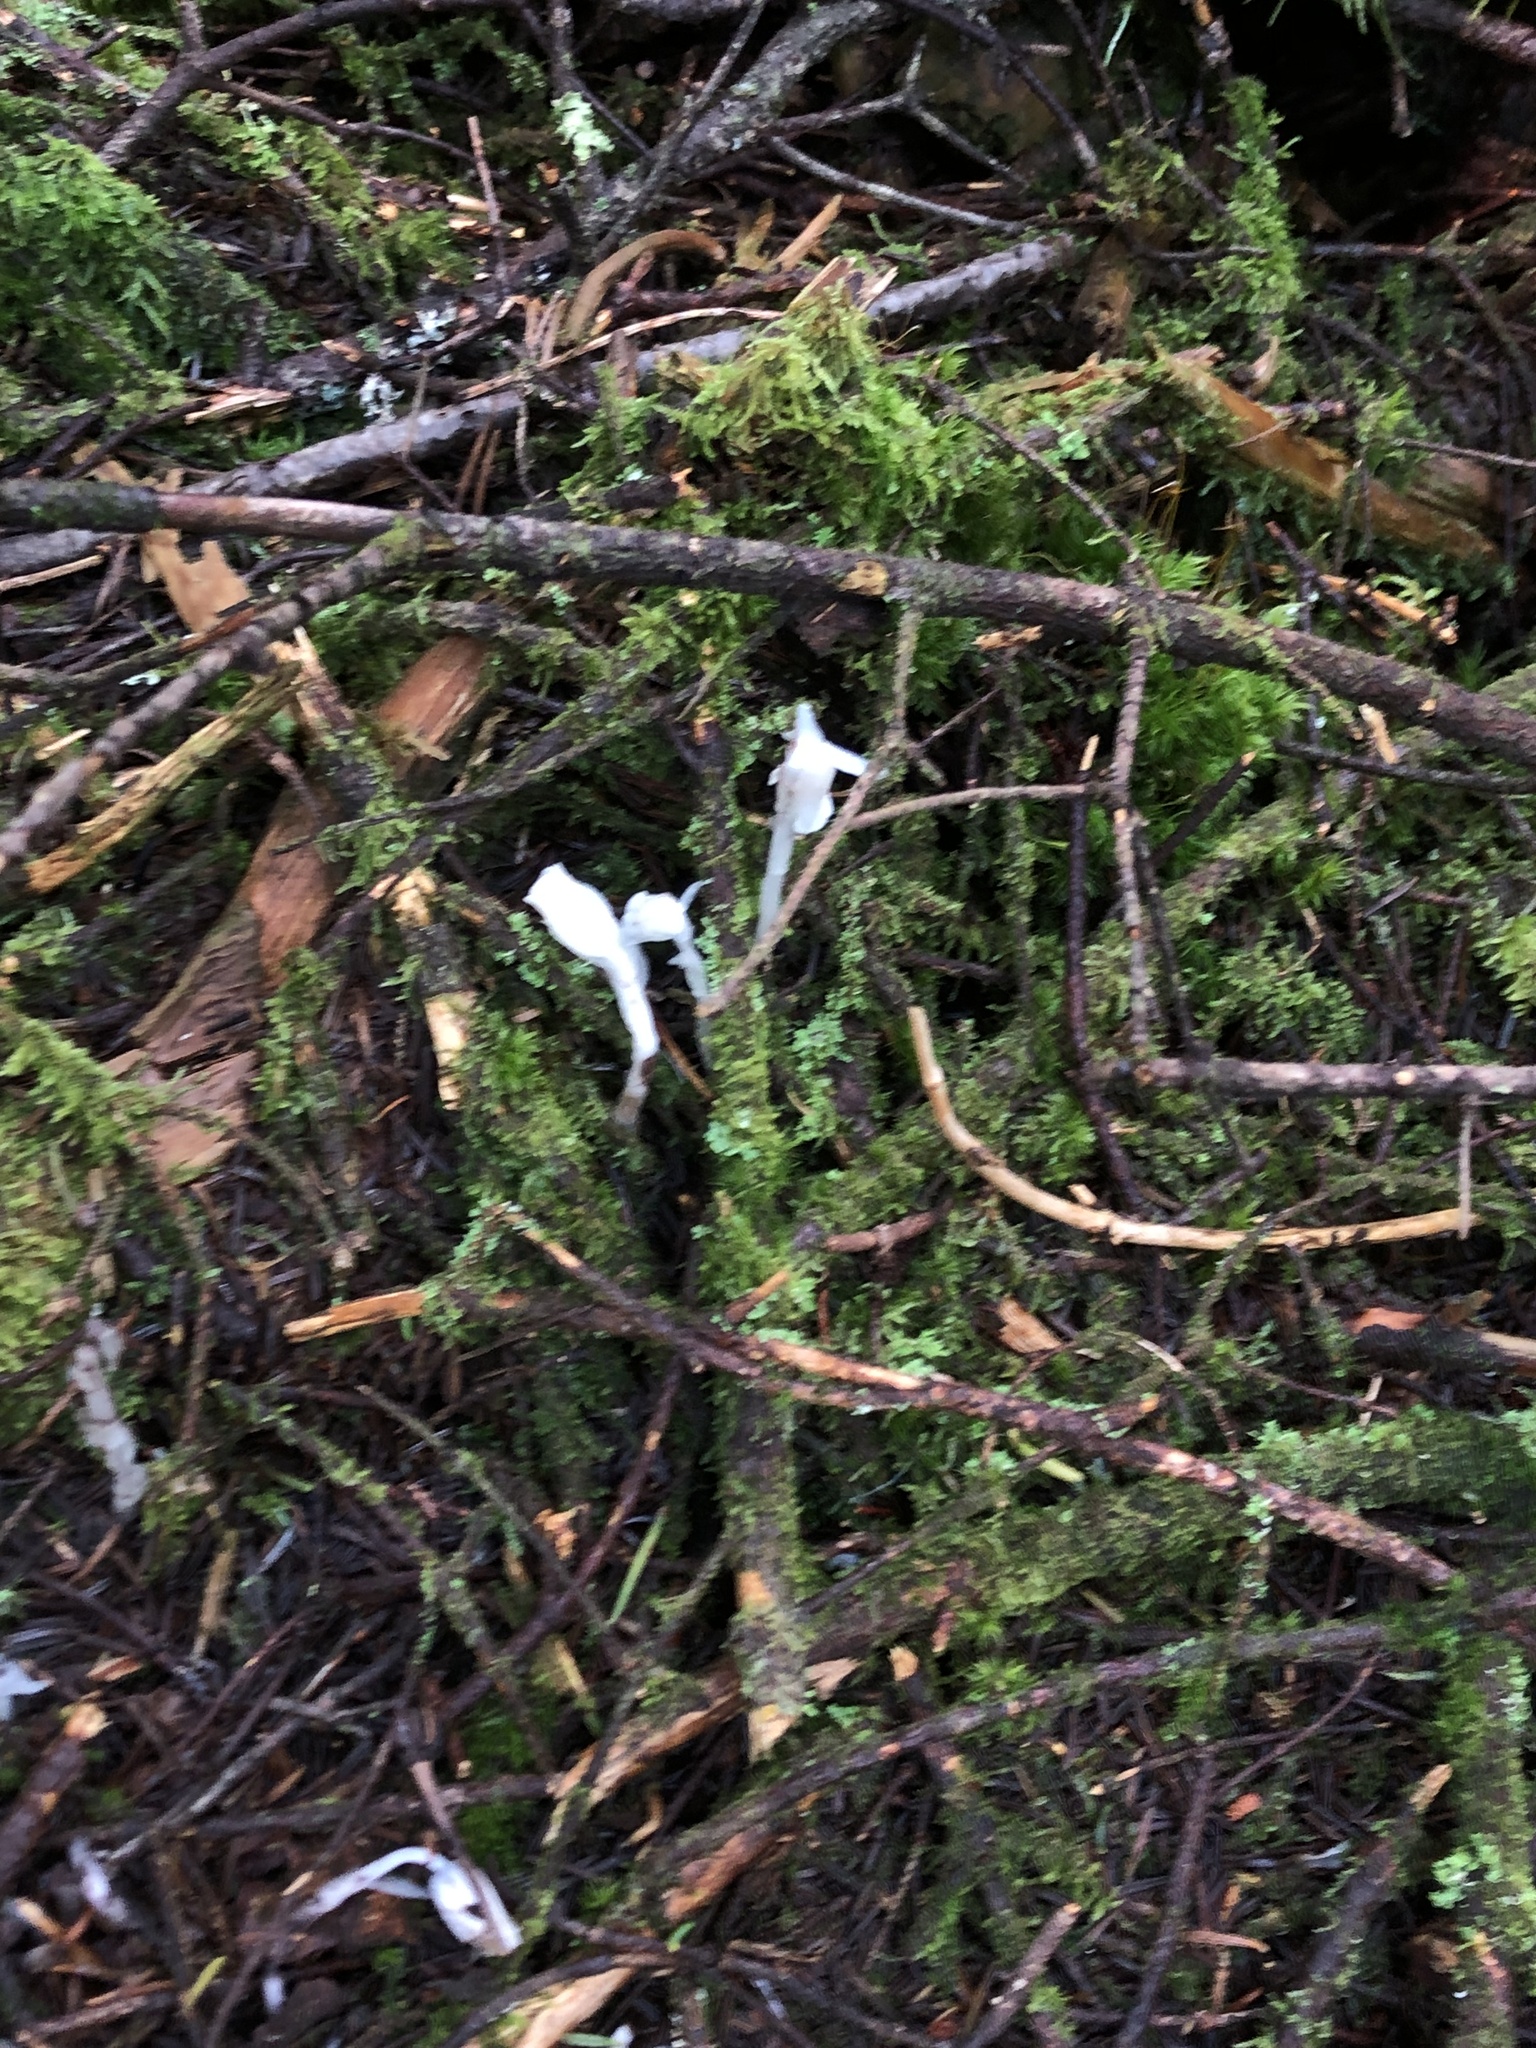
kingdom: Plantae
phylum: Tracheophyta
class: Magnoliopsida
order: Ericales
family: Ericaceae
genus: Monotropa
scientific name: Monotropa uniflora
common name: Convulsion root
